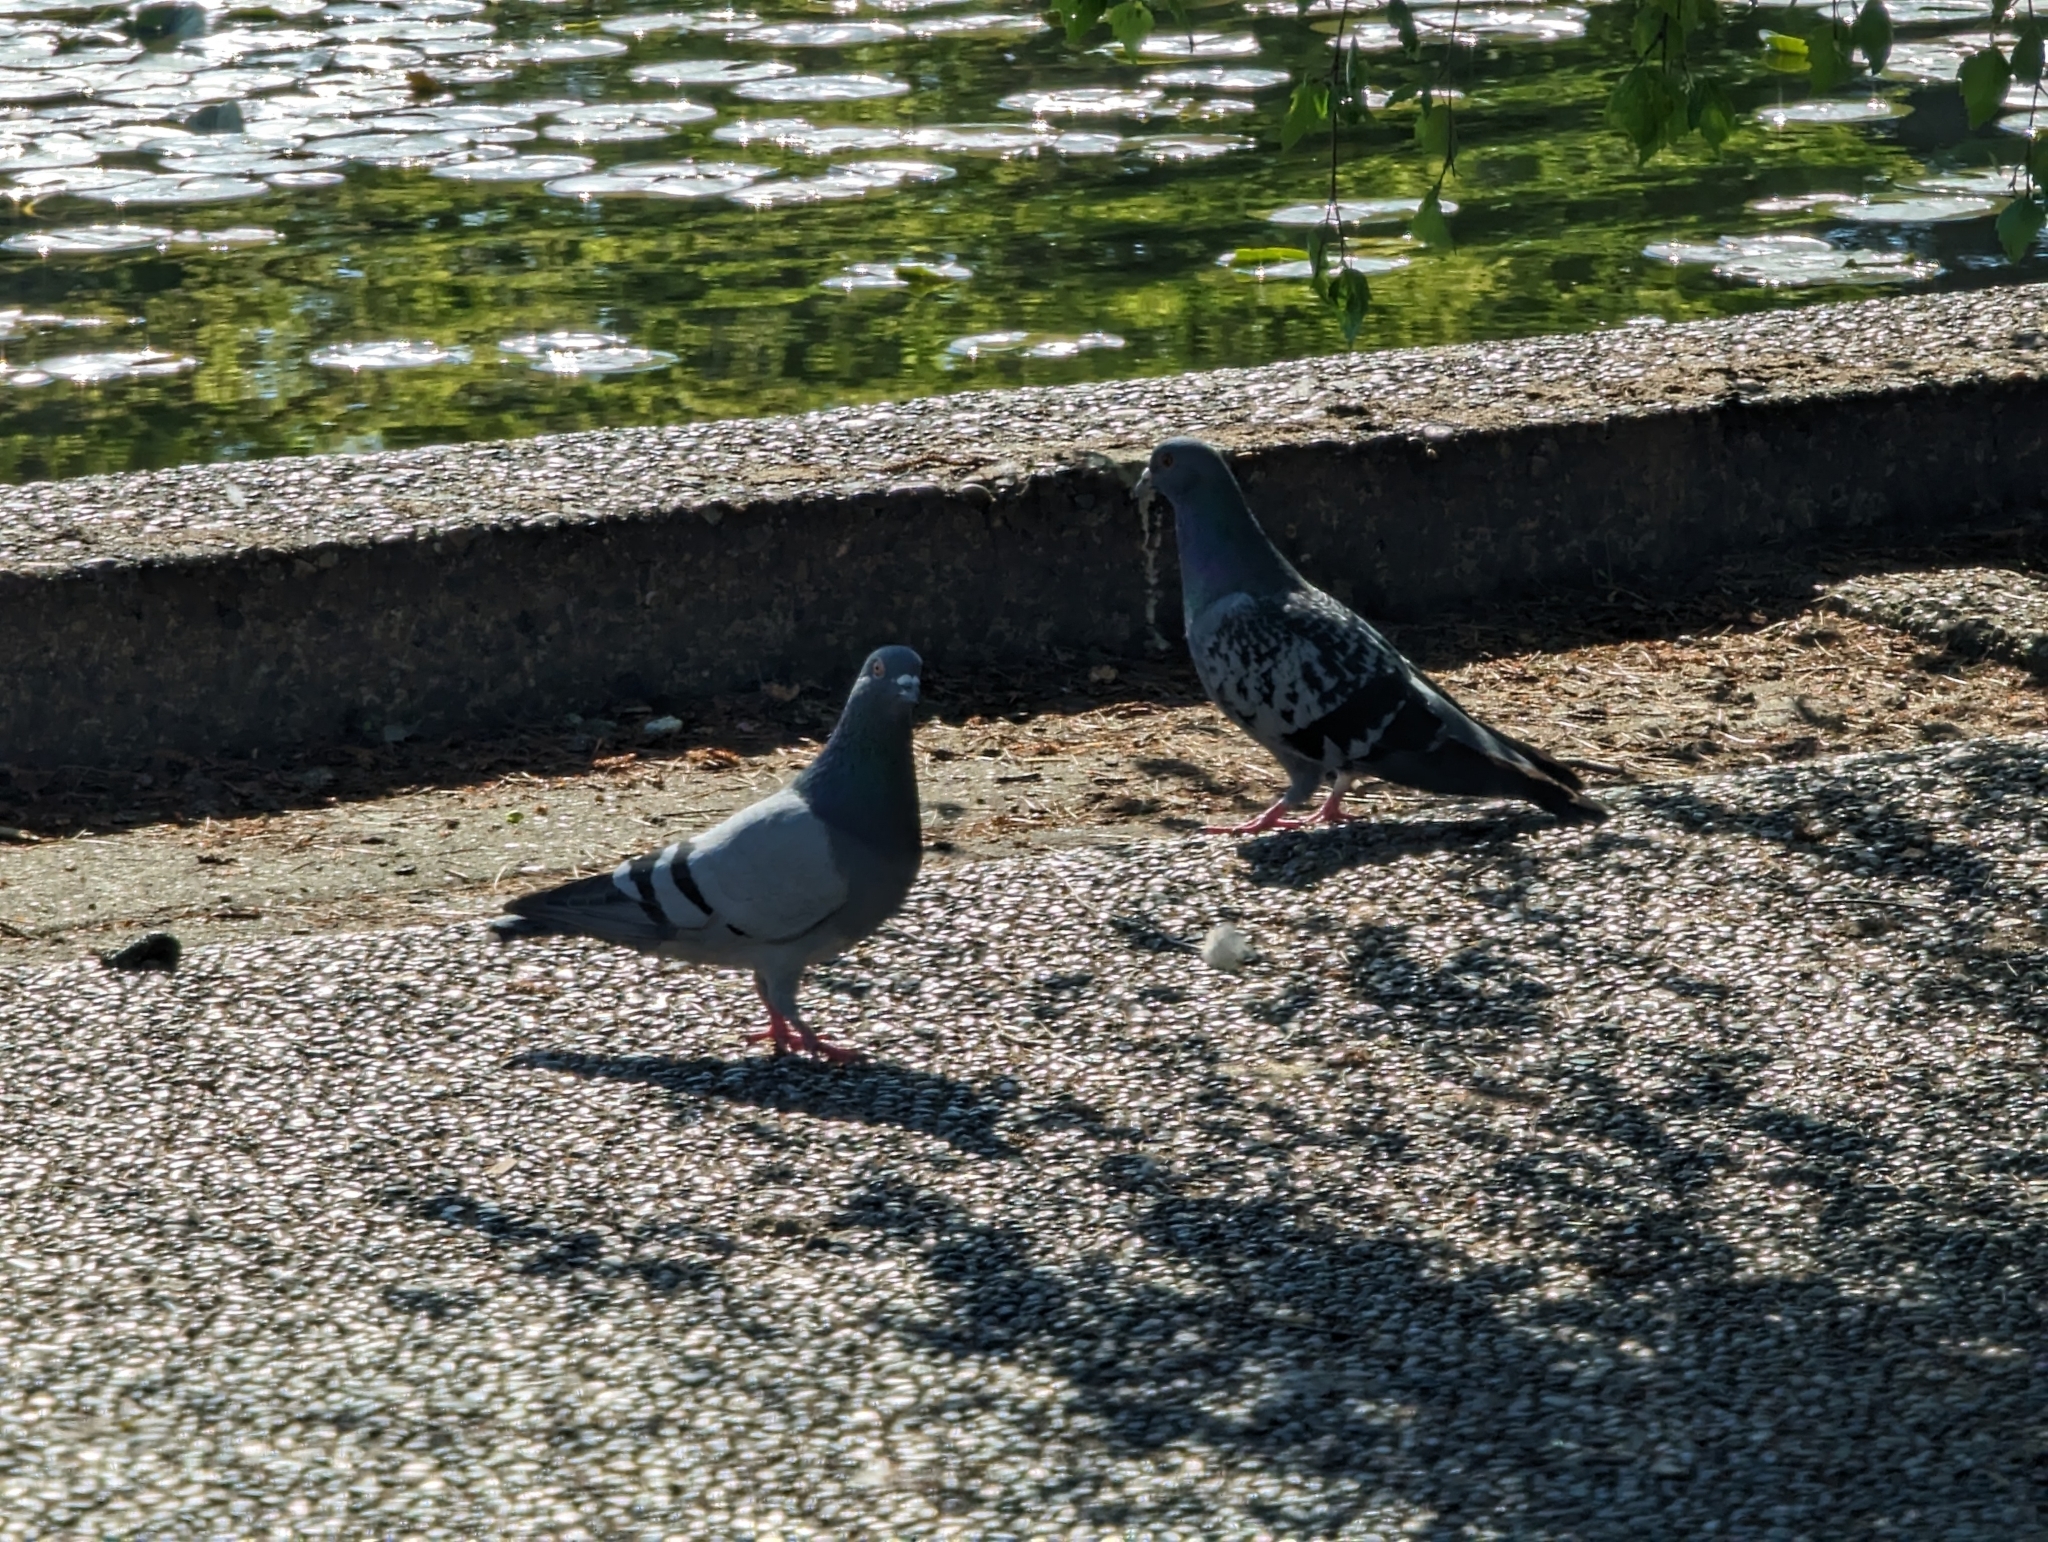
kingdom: Animalia
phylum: Chordata
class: Aves
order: Columbiformes
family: Columbidae
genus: Columba
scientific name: Columba livia
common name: Rock pigeon
